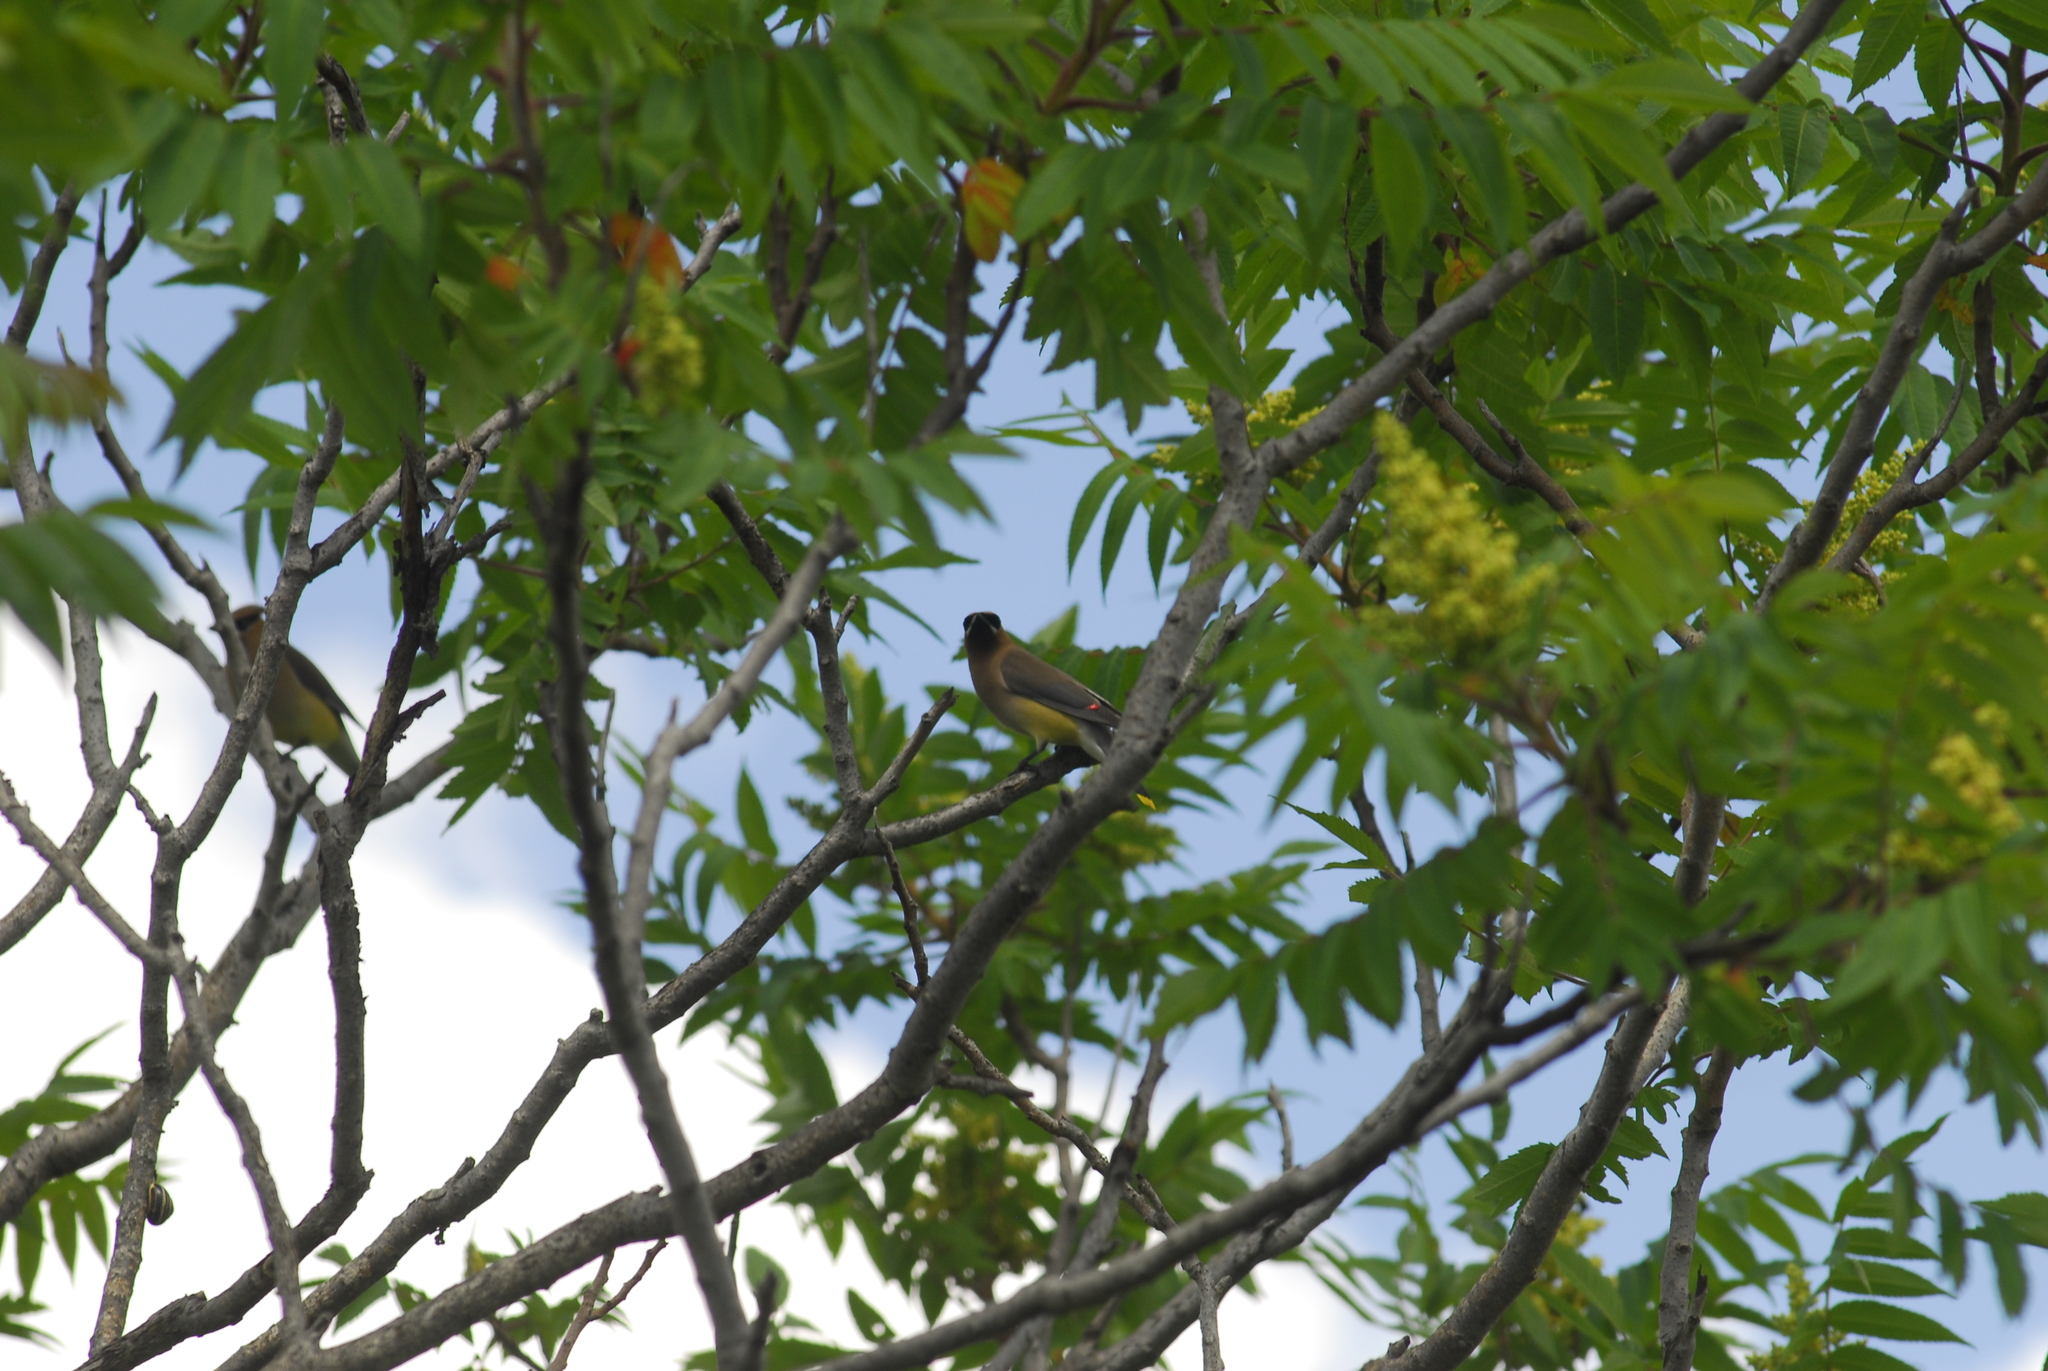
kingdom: Animalia
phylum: Chordata
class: Aves
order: Passeriformes
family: Bombycillidae
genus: Bombycilla
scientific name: Bombycilla cedrorum
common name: Cedar waxwing
